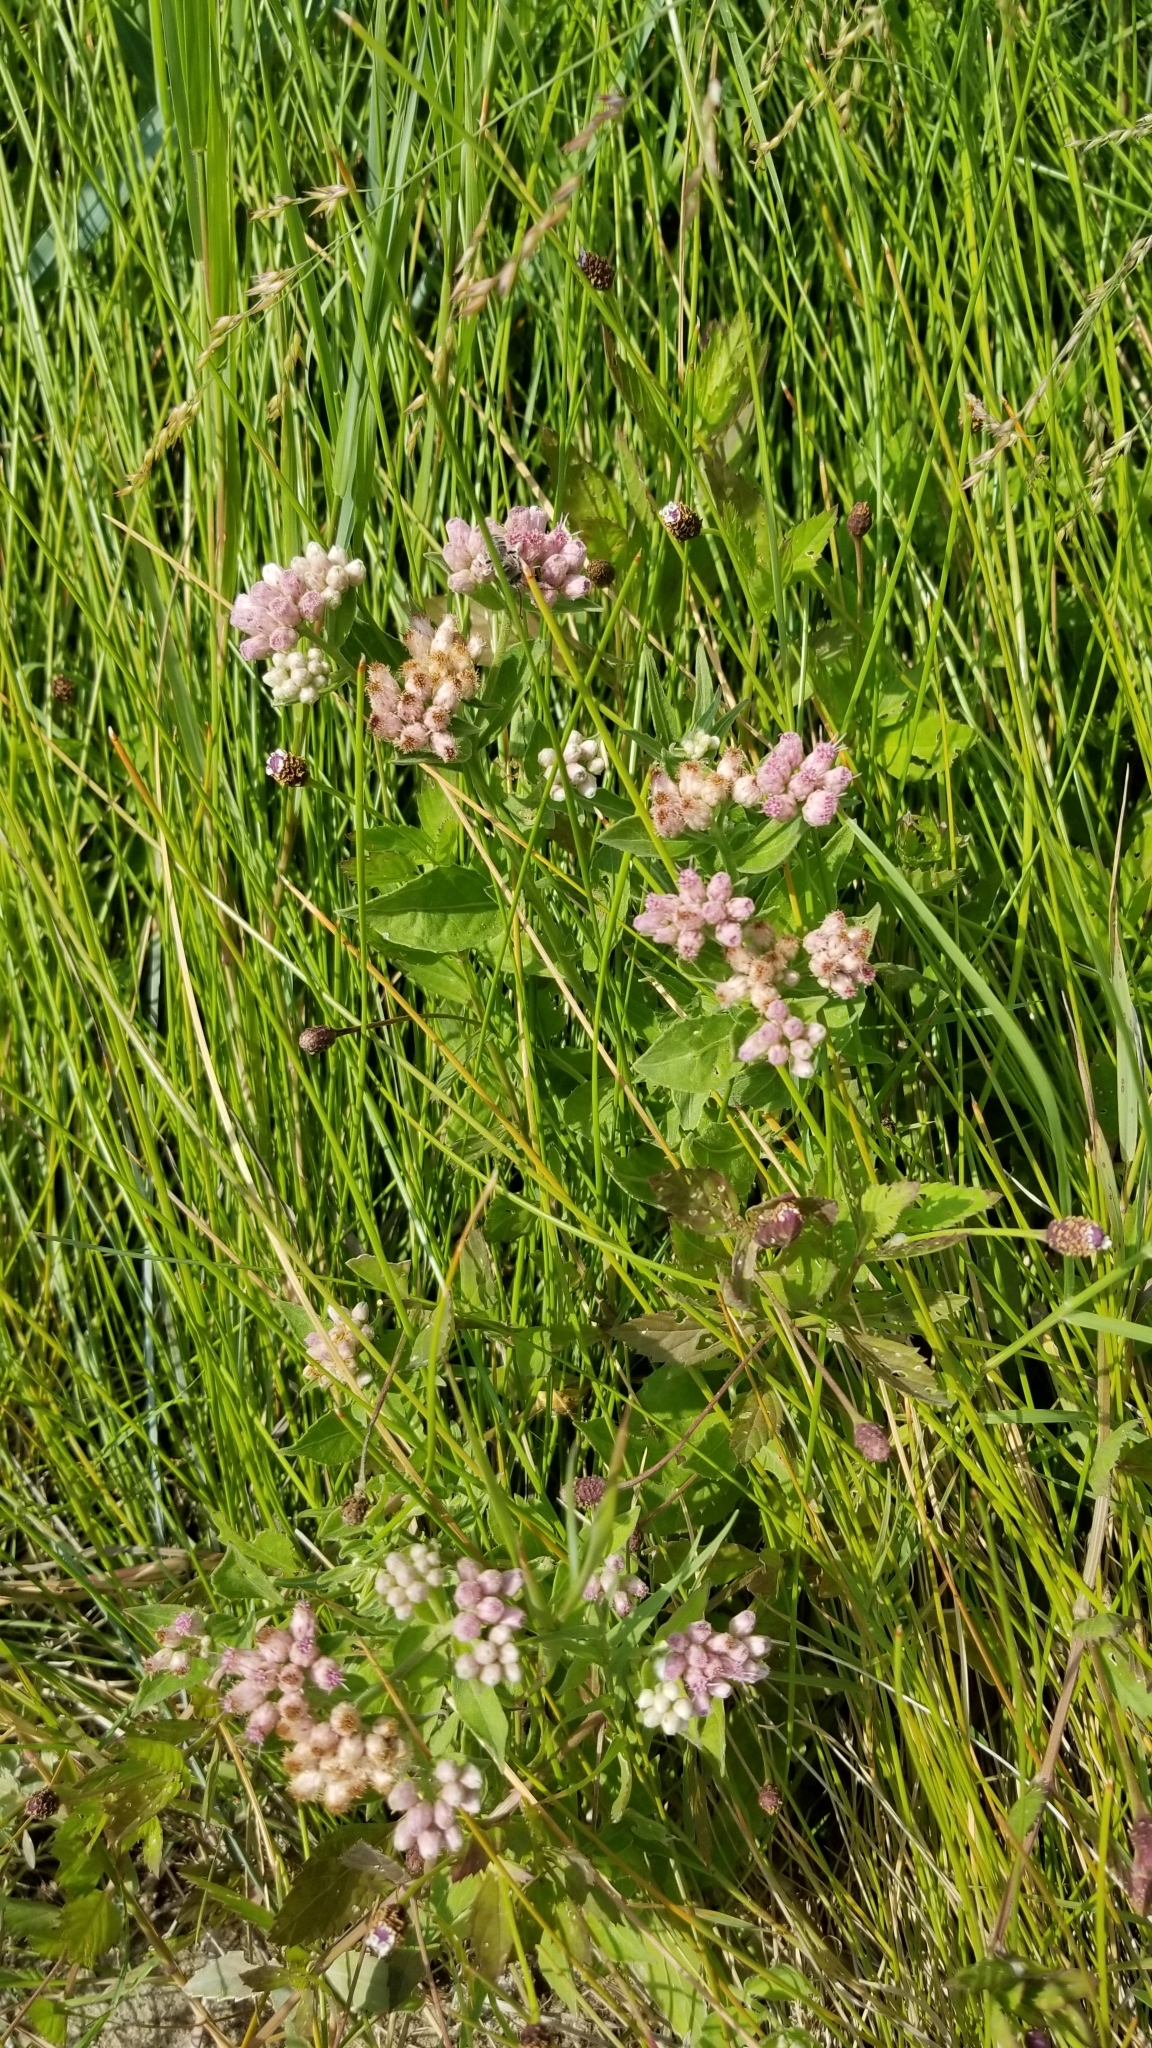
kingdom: Plantae
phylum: Tracheophyta
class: Magnoliopsida
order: Asterales
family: Asteraceae
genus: Pluchea
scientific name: Pluchea odorata
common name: Saltmarsh fleabane
